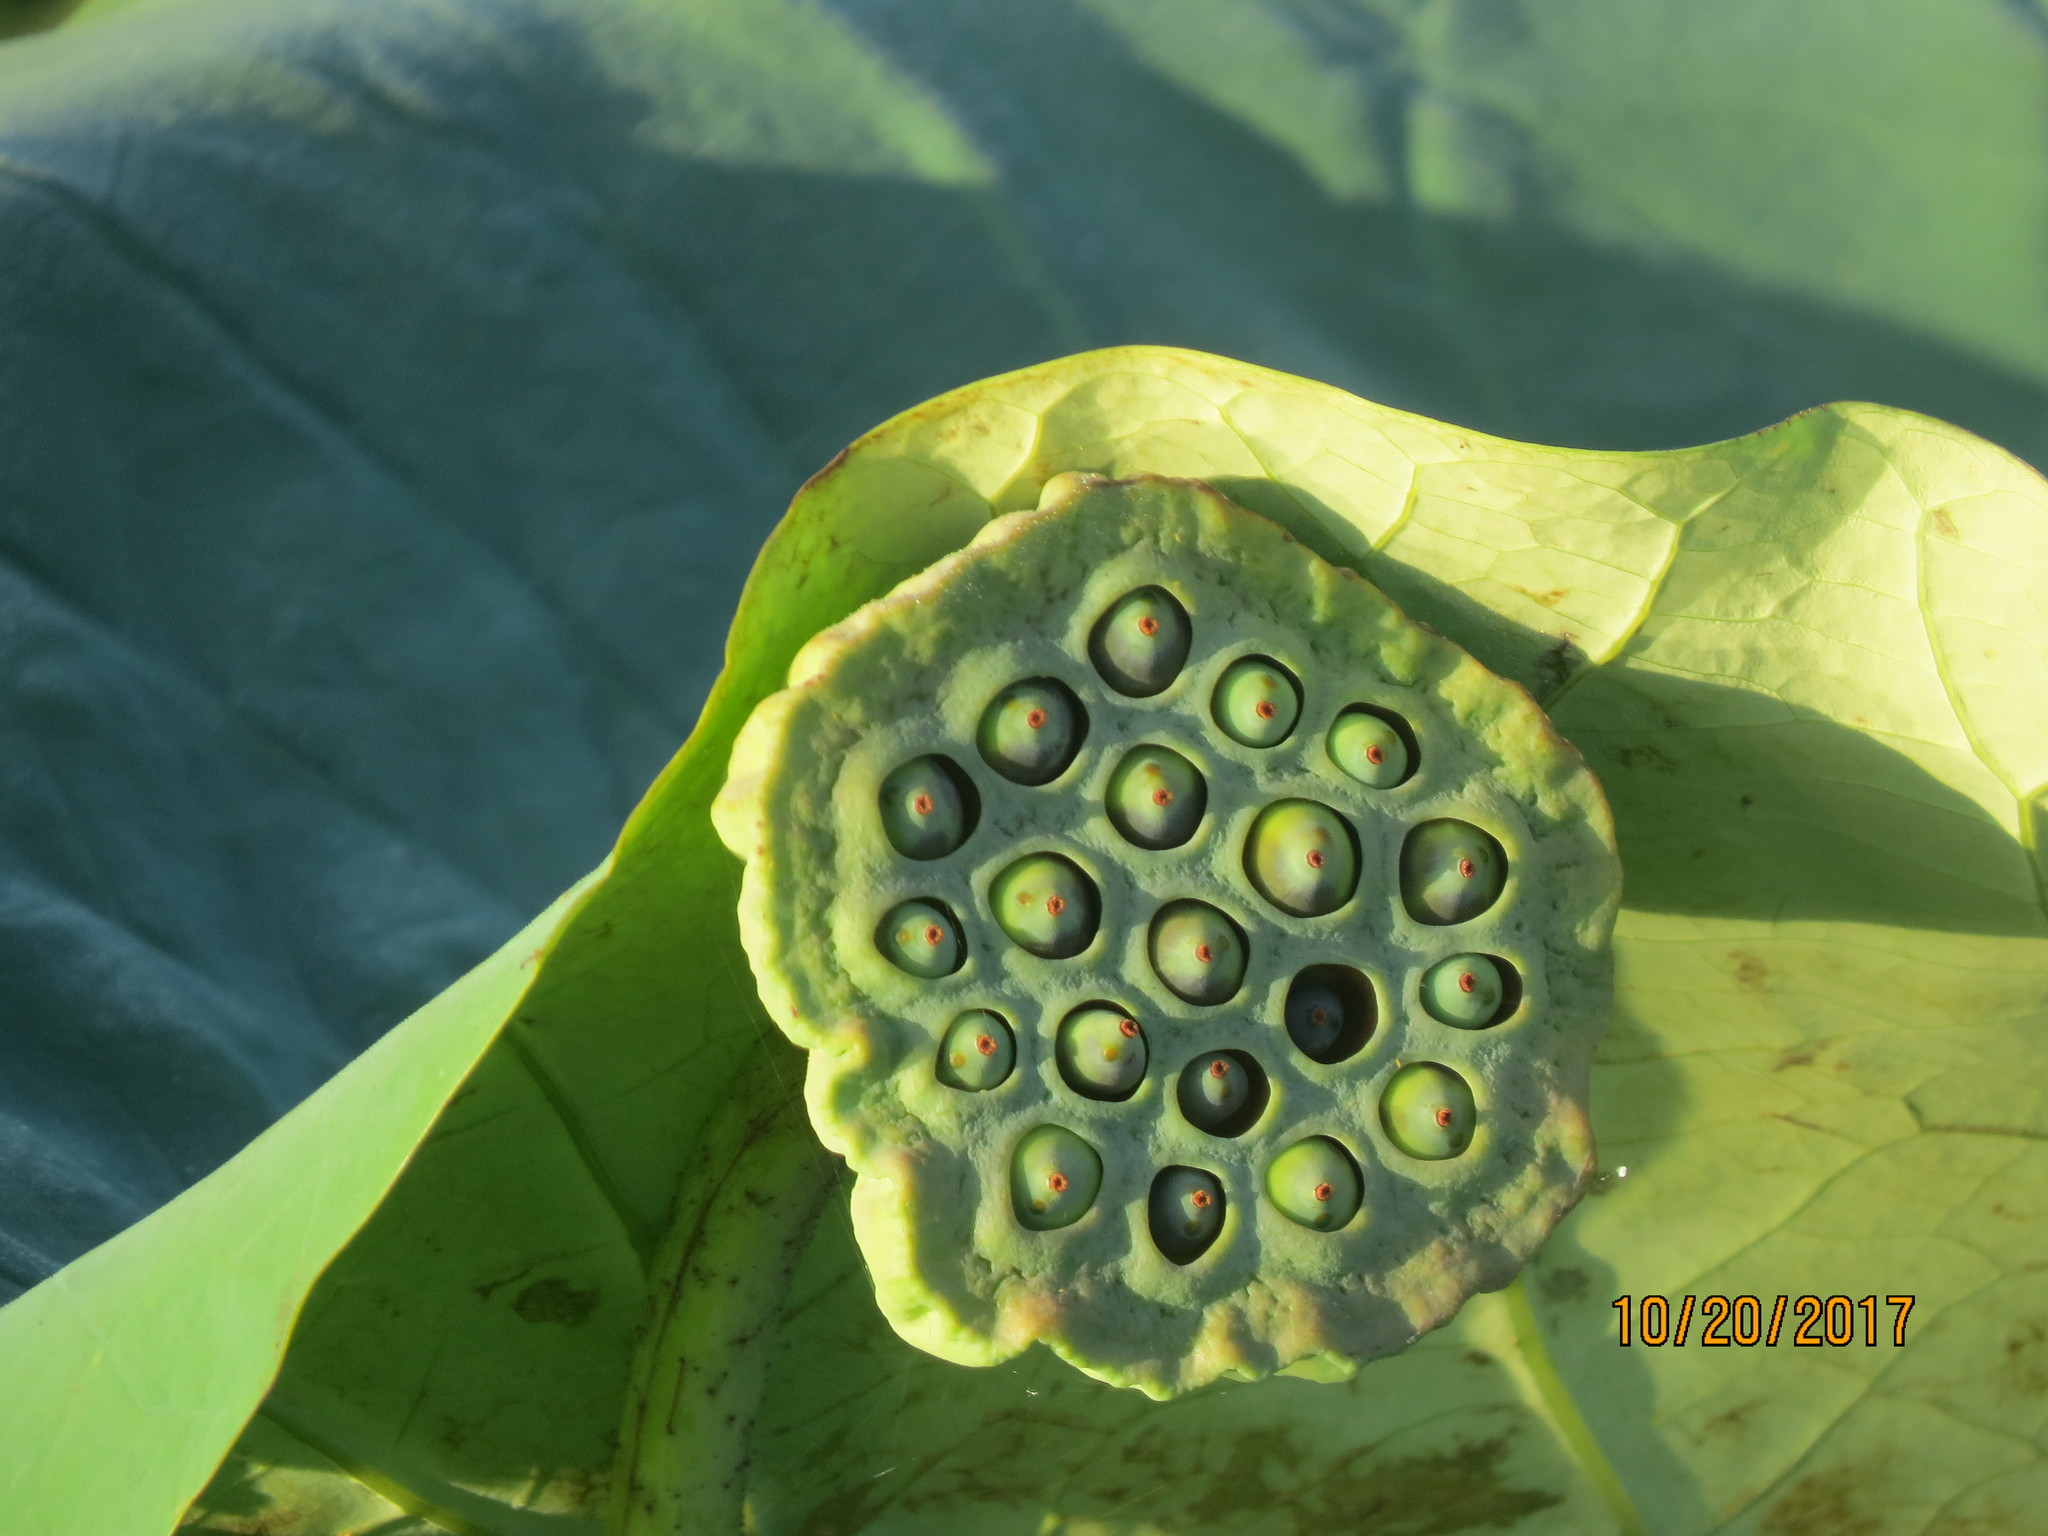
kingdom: Plantae
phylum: Tracheophyta
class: Magnoliopsida
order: Proteales
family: Nelumbonaceae
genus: Nelumbo
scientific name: Nelumbo nucifera
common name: Sacred lotus
